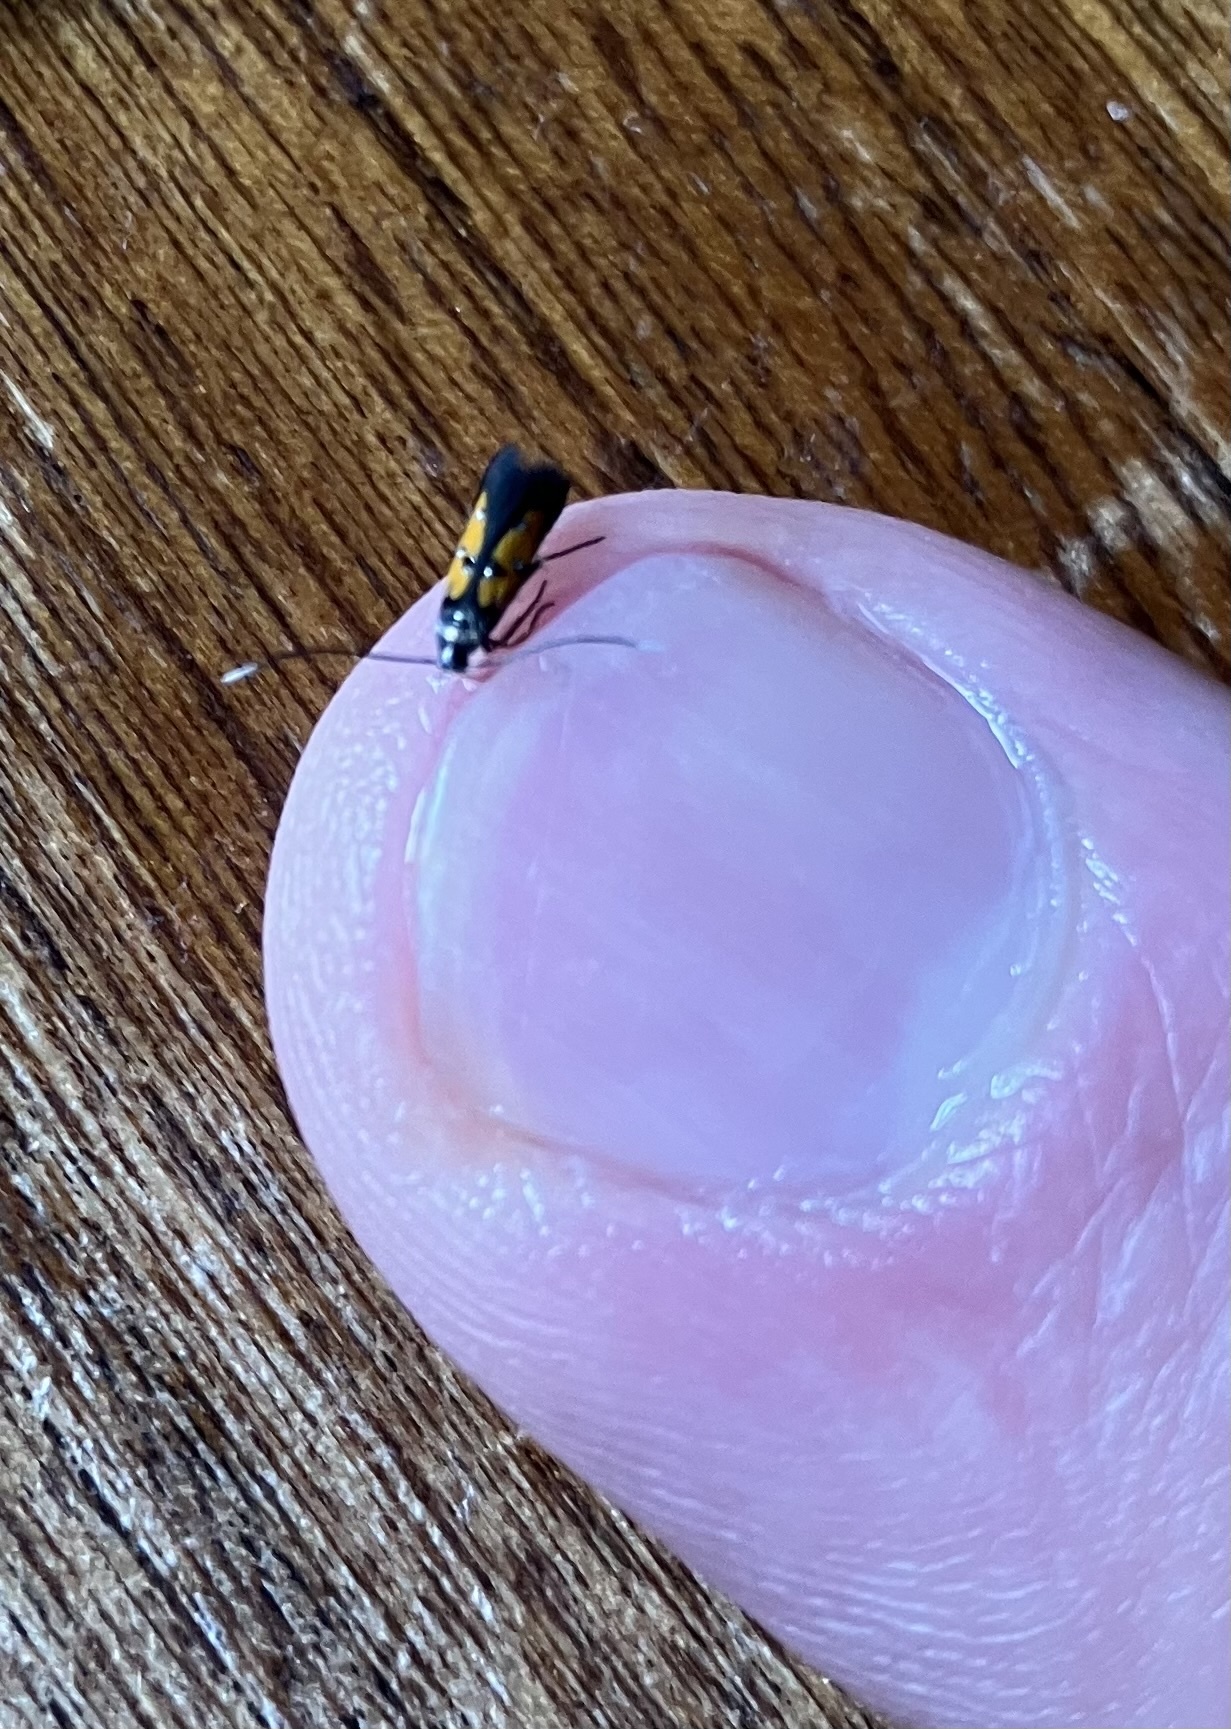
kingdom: Animalia
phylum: Arthropoda
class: Insecta
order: Lepidoptera
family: Elachistidae
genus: Chrysoclista
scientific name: Chrysoclista linneela
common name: Lime cosmet
